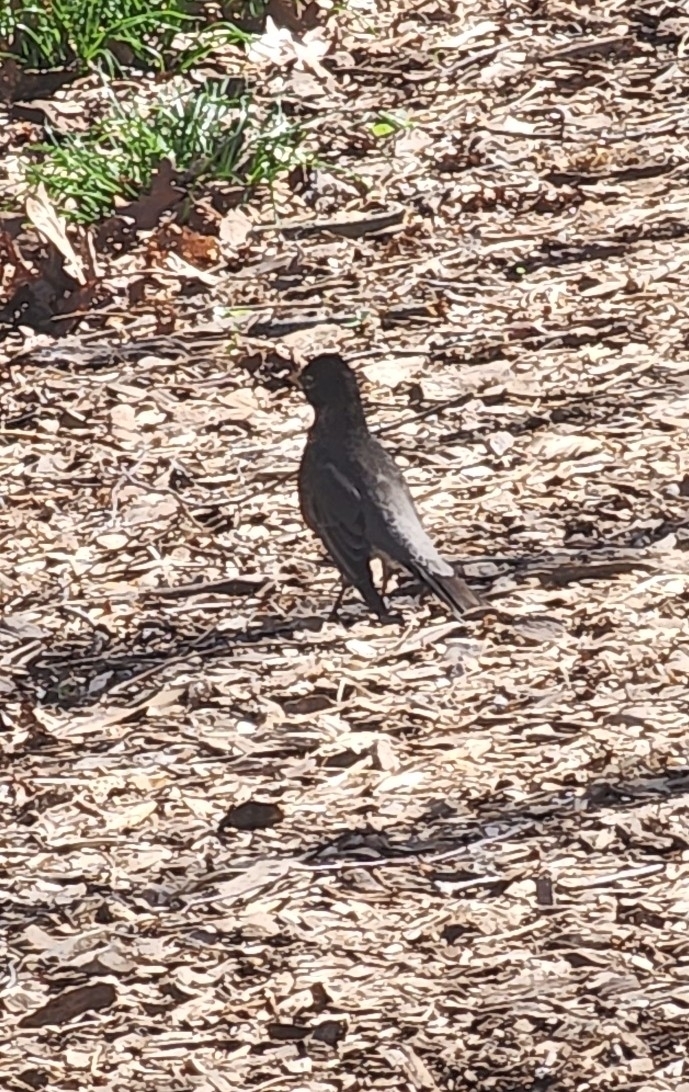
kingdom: Animalia
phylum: Chordata
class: Aves
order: Passeriformes
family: Turdidae
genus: Turdus
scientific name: Turdus migratorius
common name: American robin
